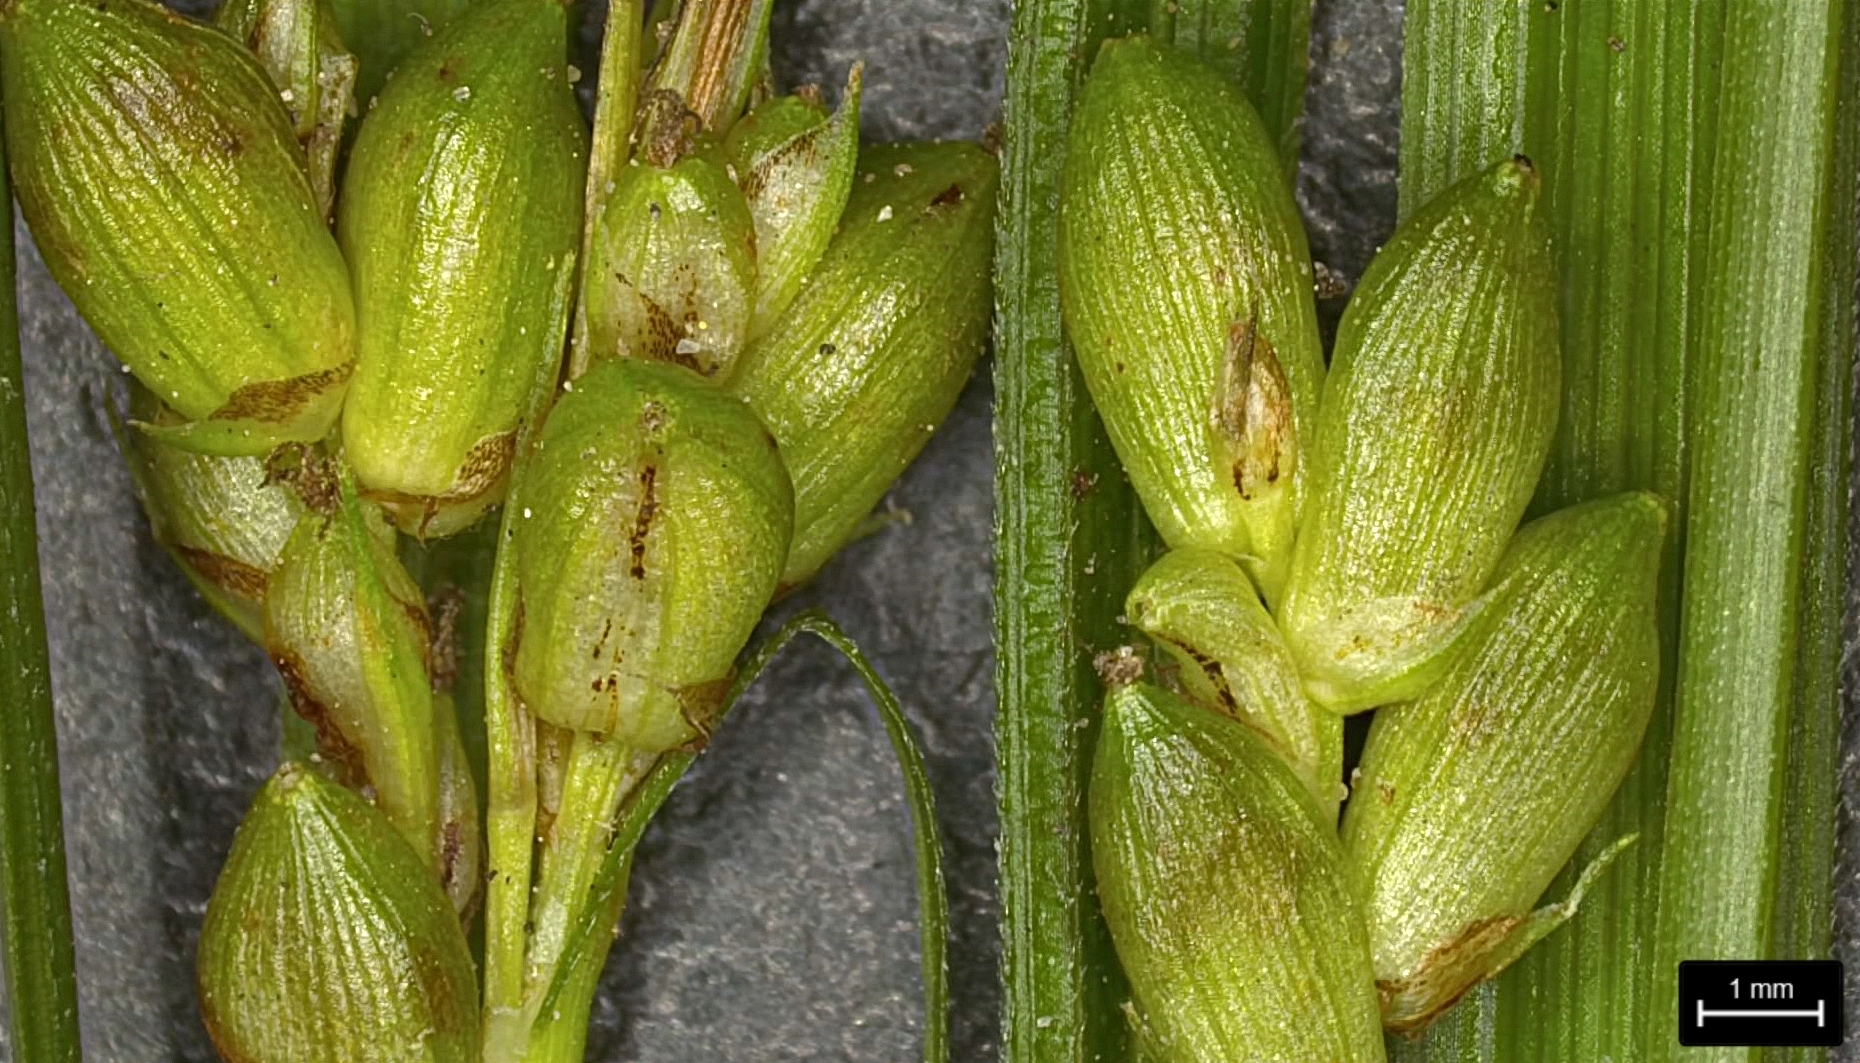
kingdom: Plantae
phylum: Tracheophyta
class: Liliopsida
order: Poales
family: Cyperaceae
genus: Carex
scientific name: Carex corrugata
